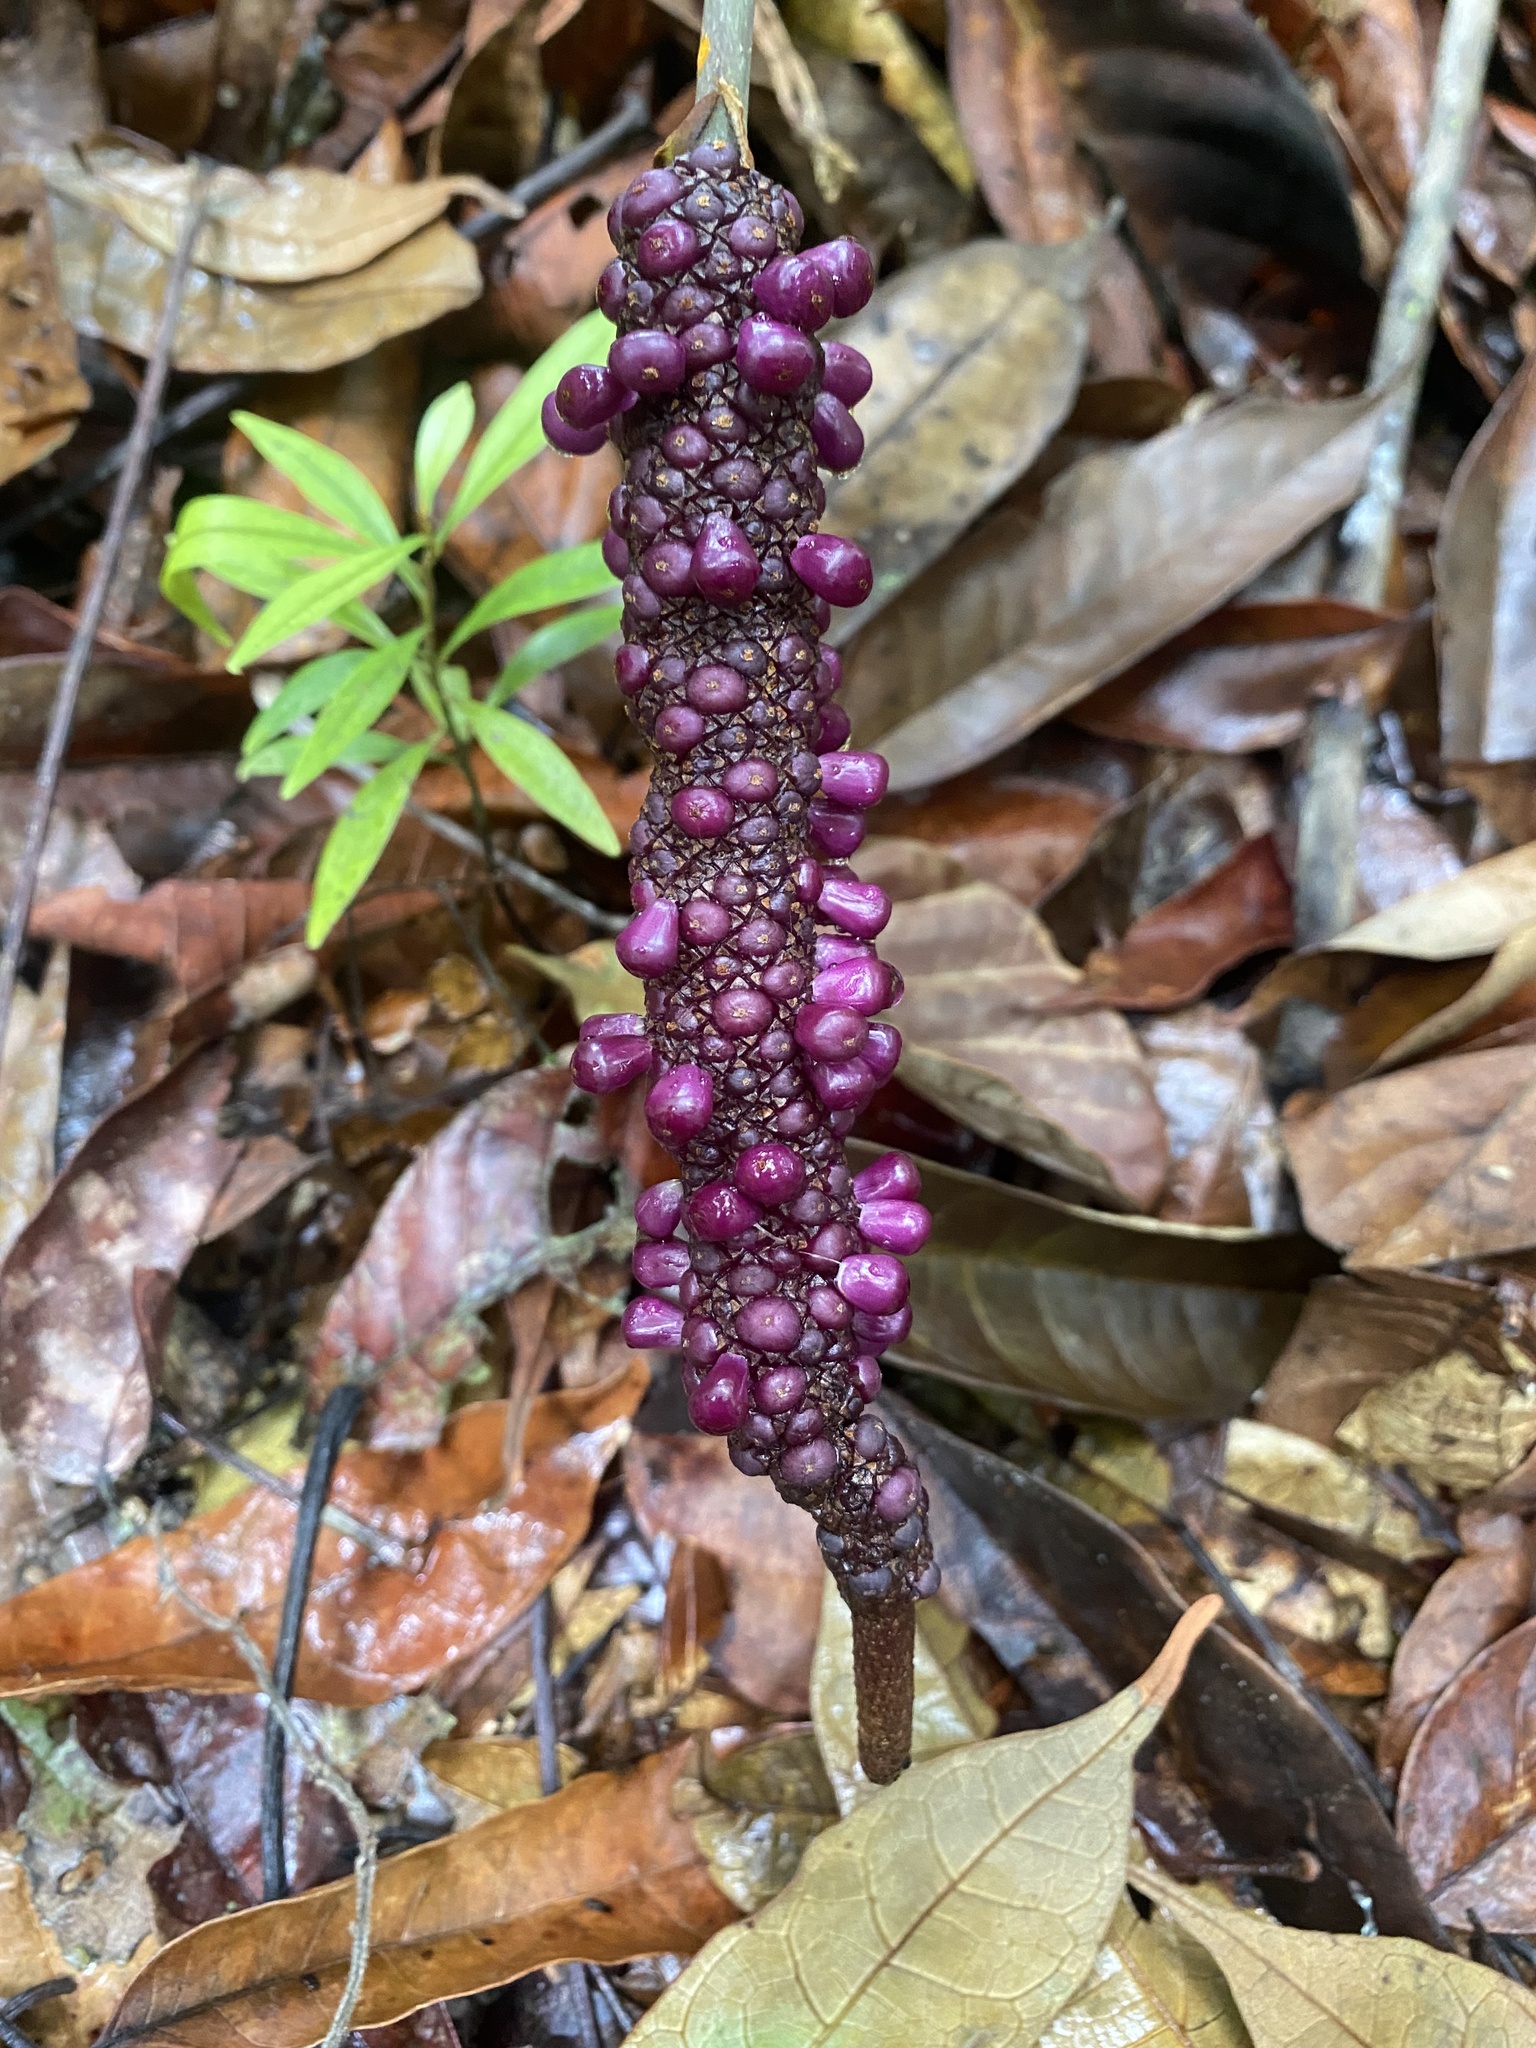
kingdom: Plantae
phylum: Tracheophyta
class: Liliopsida
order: Alismatales
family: Araceae
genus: Anthurium
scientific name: Anthurium atropurpureum
